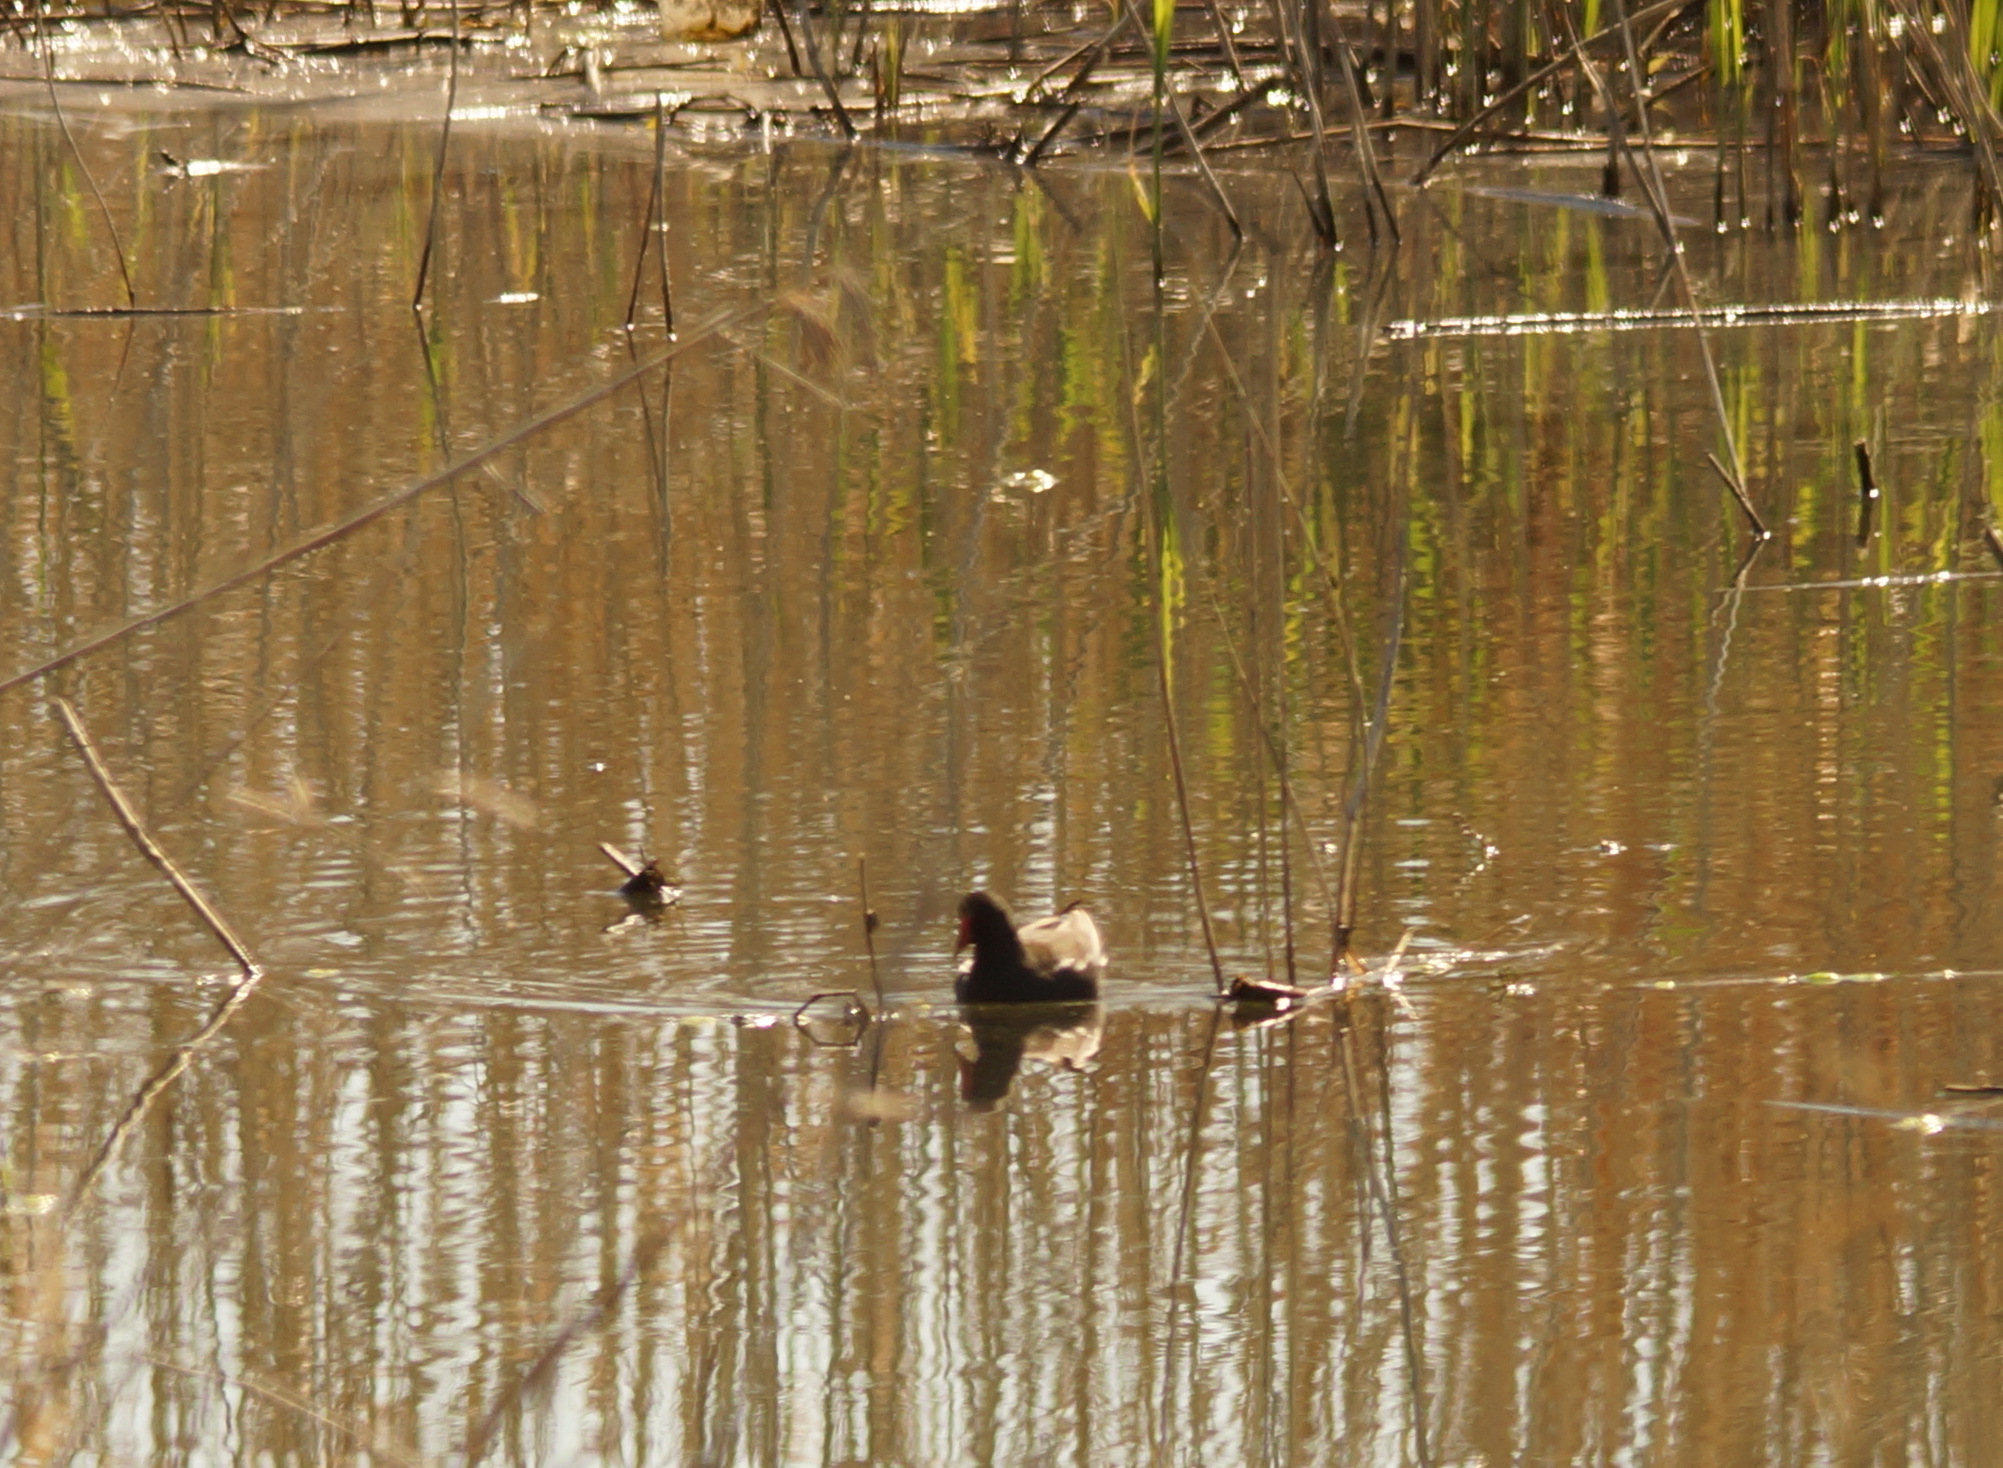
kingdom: Animalia
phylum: Chordata
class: Aves
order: Gruiformes
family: Rallidae
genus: Gallinula
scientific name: Gallinula chloropus
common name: Common moorhen
